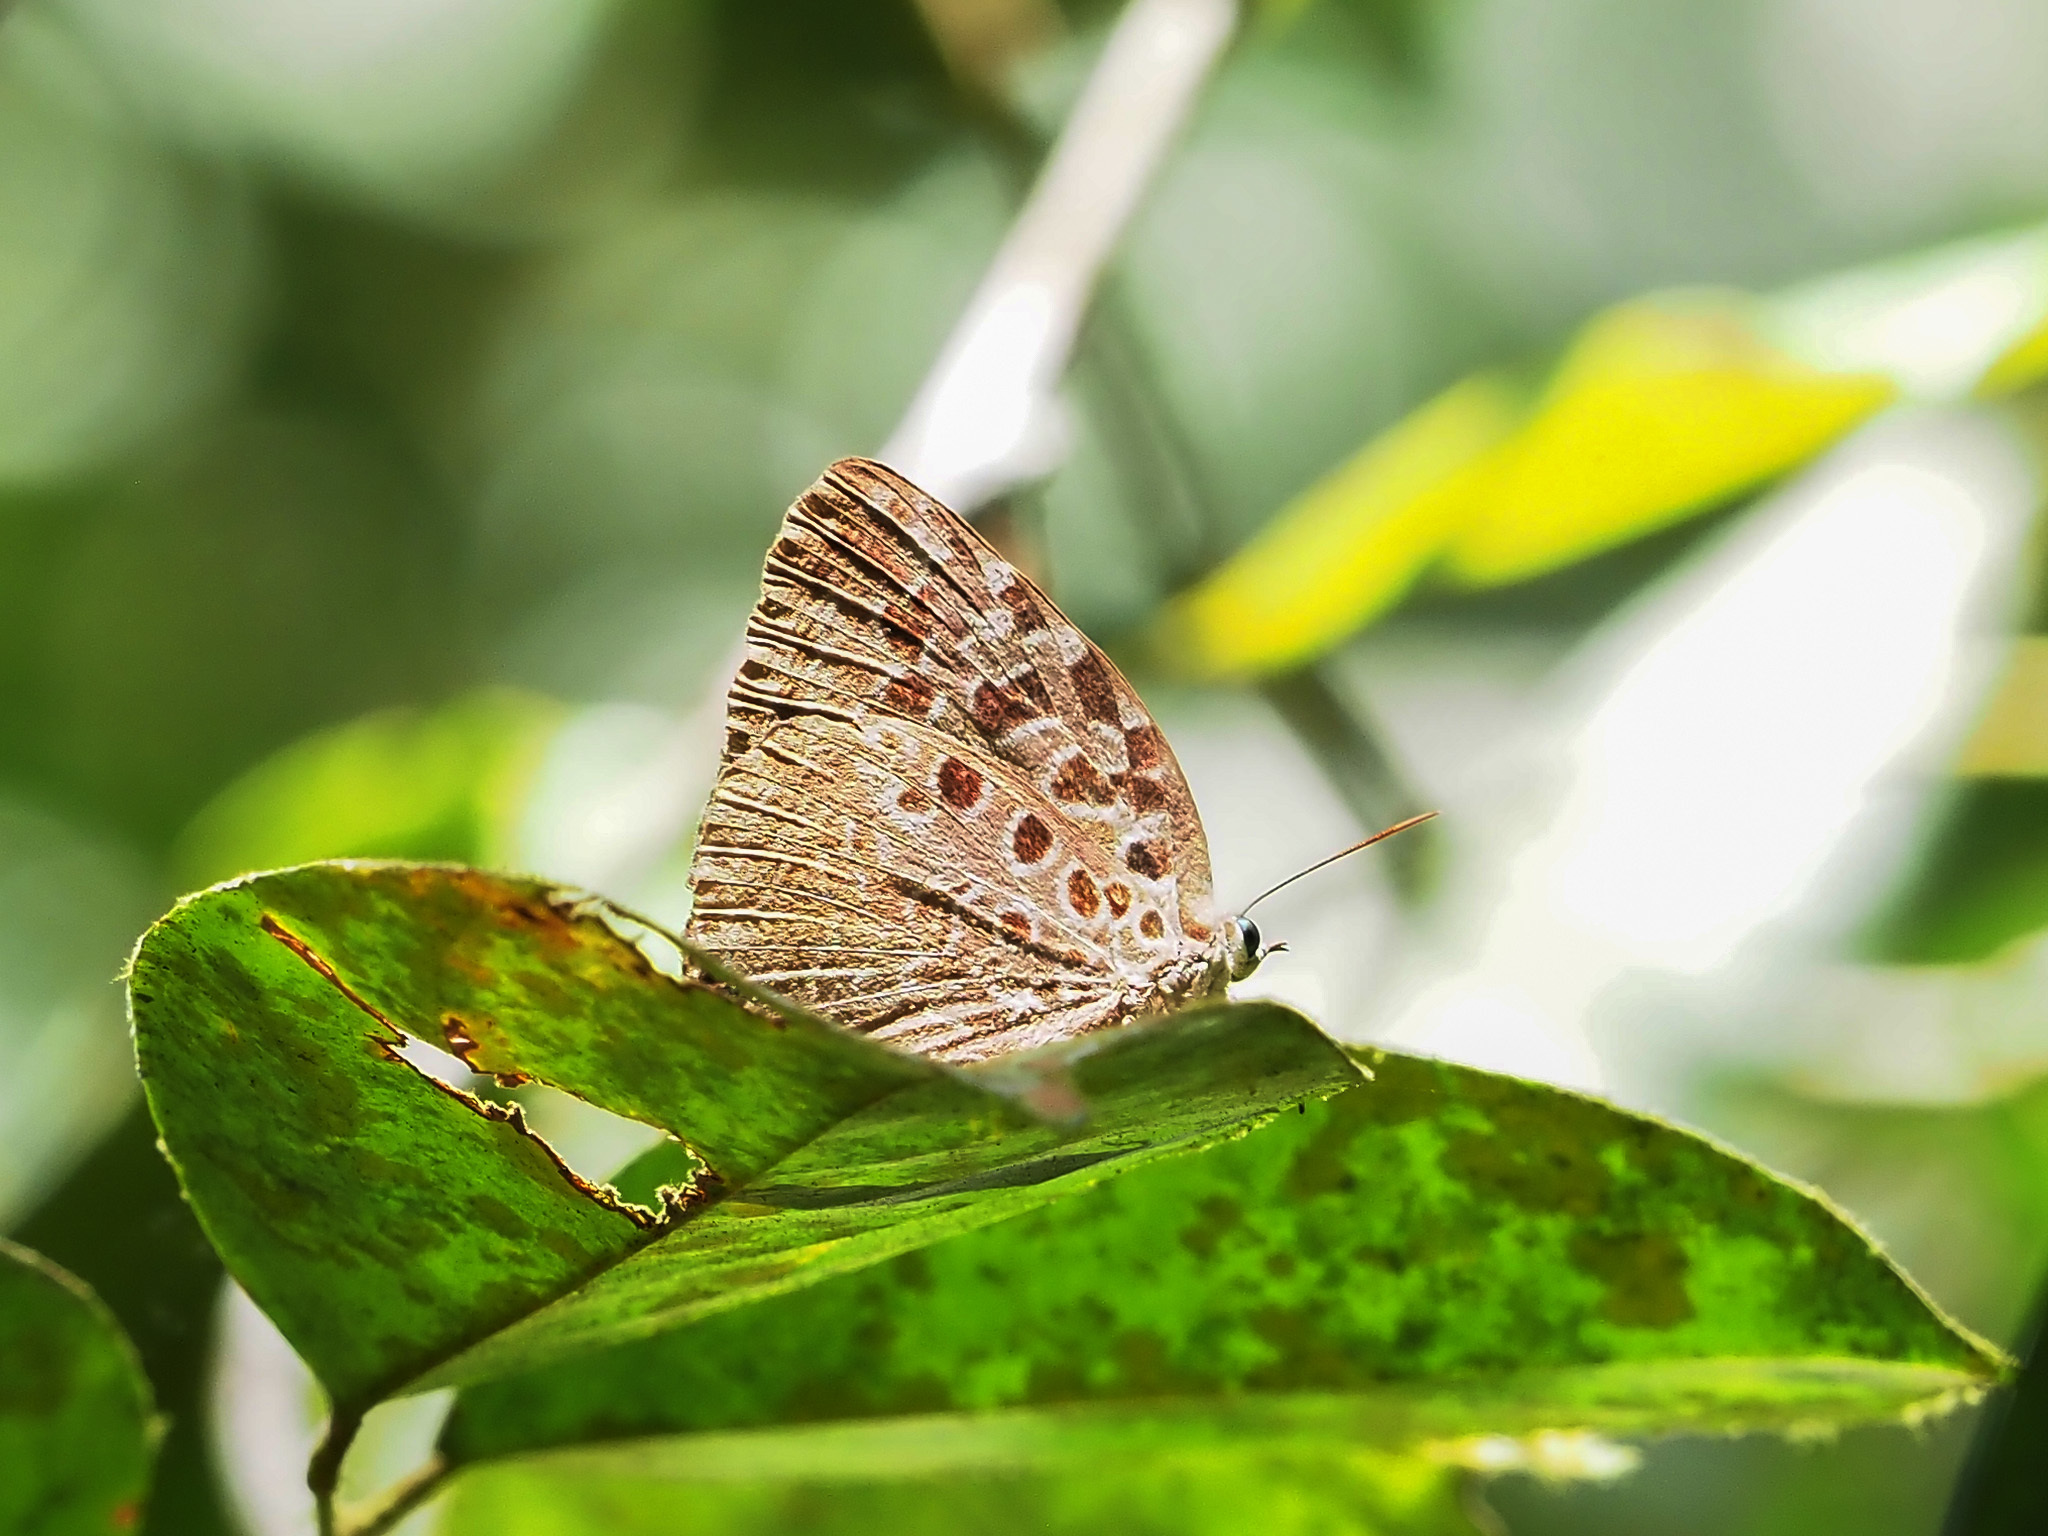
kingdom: Animalia
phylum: Arthropoda
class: Insecta
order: Lepidoptera
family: Lycaenidae
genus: Arhopala
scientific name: Arhopala anthelus
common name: Bushblue
